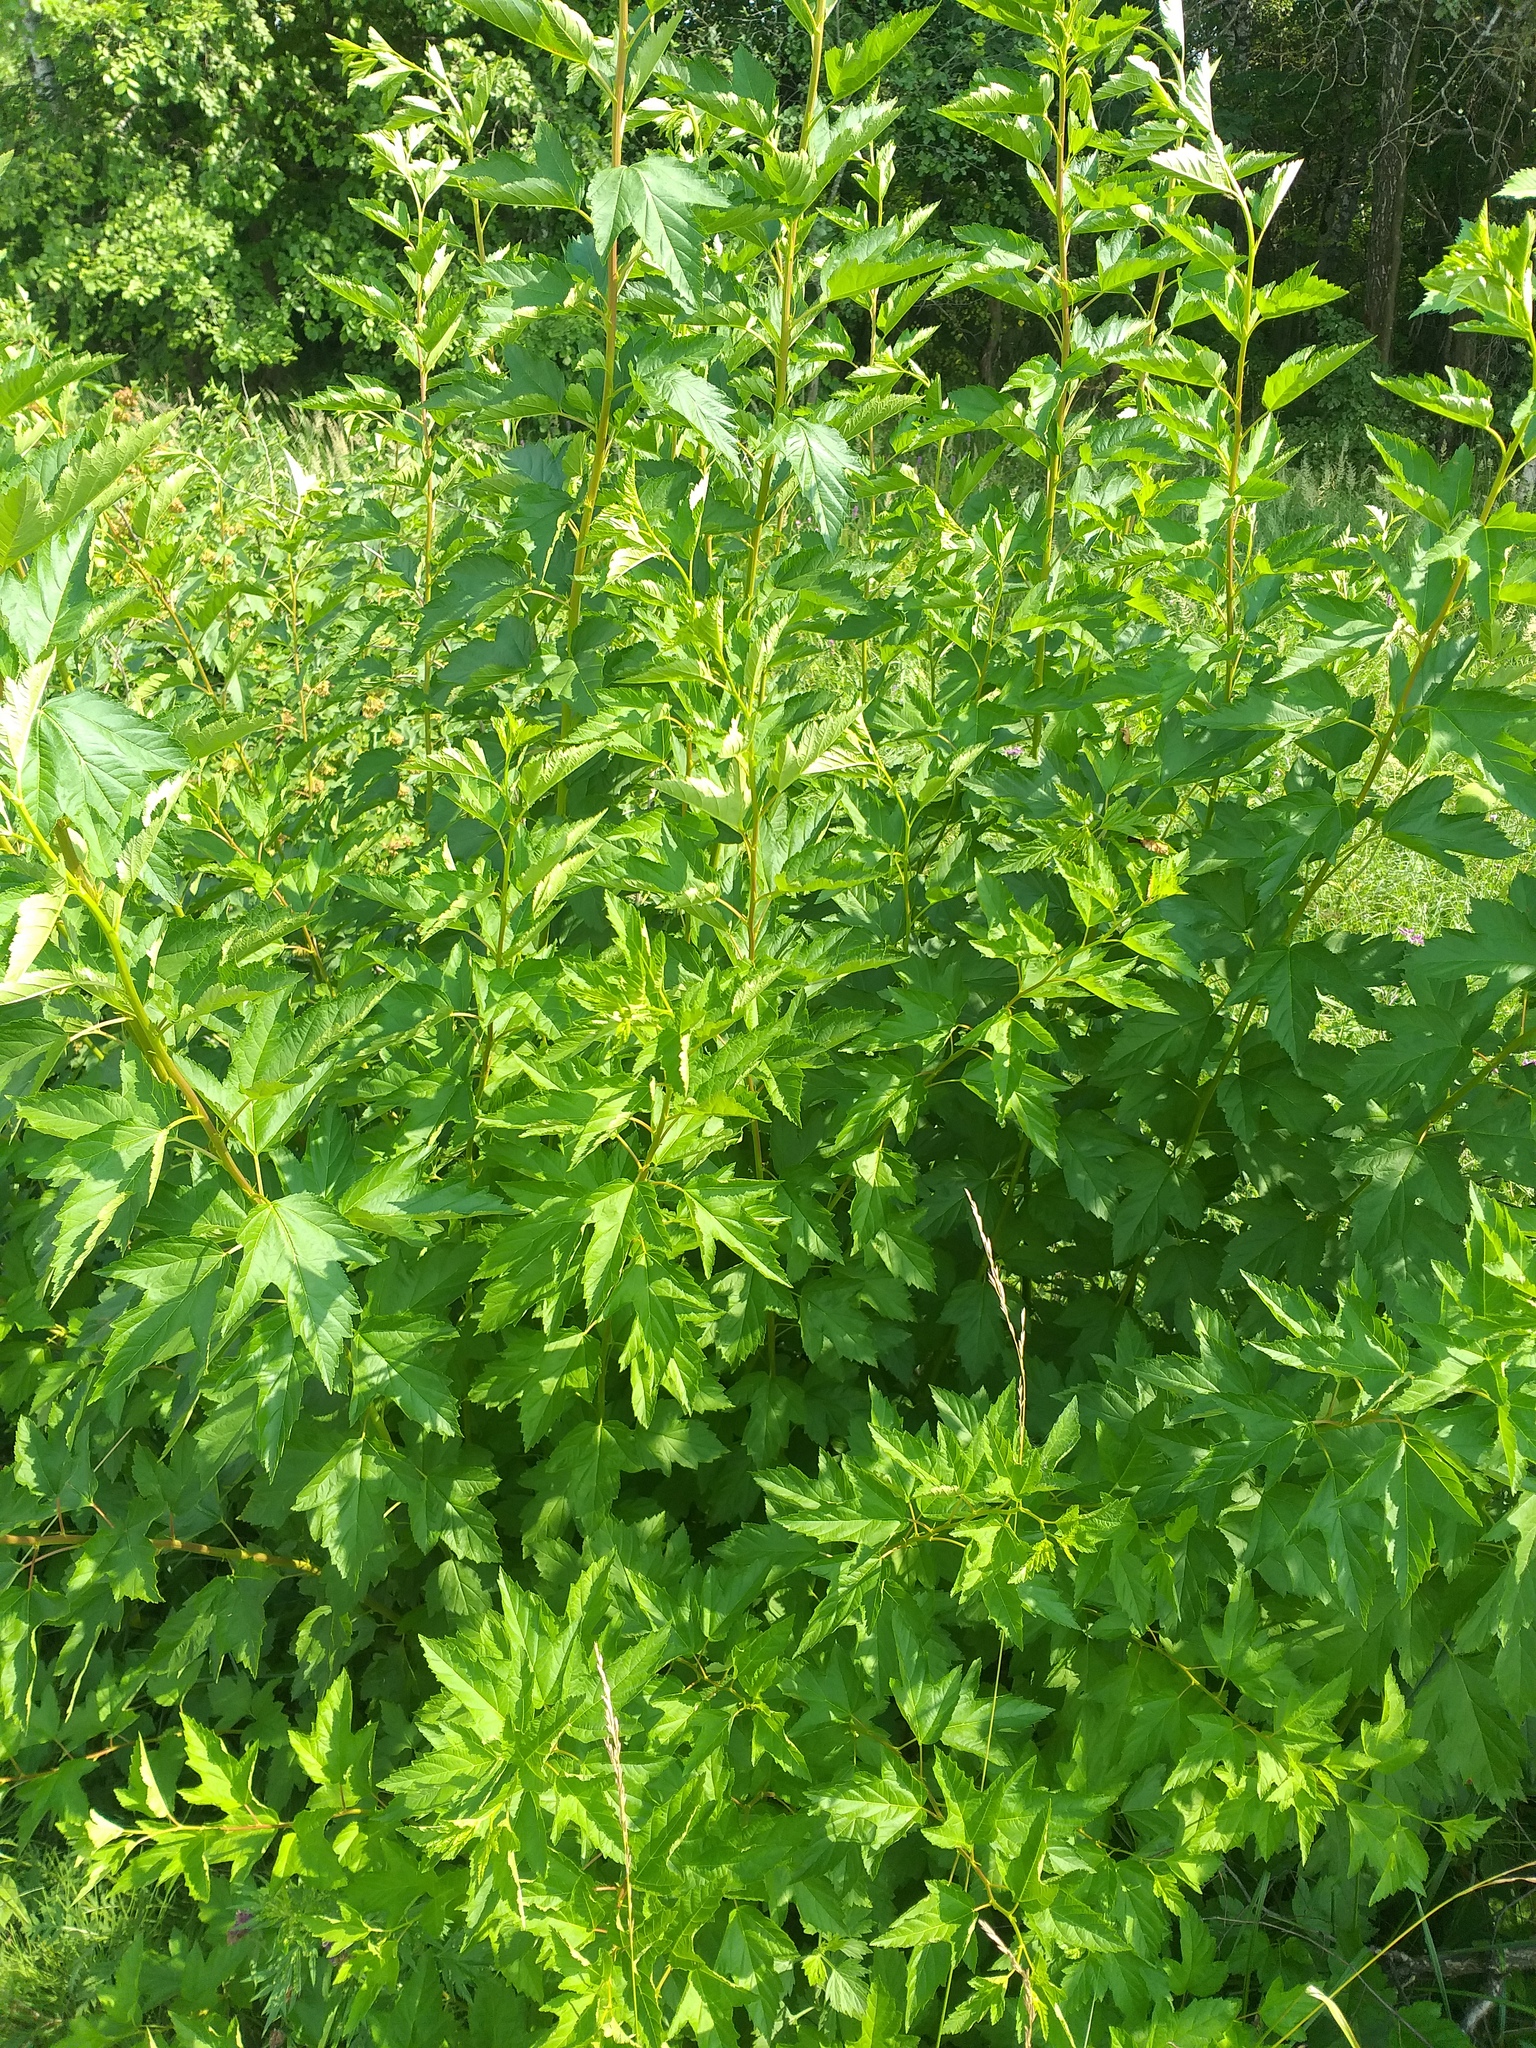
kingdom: Plantae
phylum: Tracheophyta
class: Magnoliopsida
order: Rosales
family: Rosaceae
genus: Physocarpus
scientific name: Physocarpus opulifolius
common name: Ninebark
